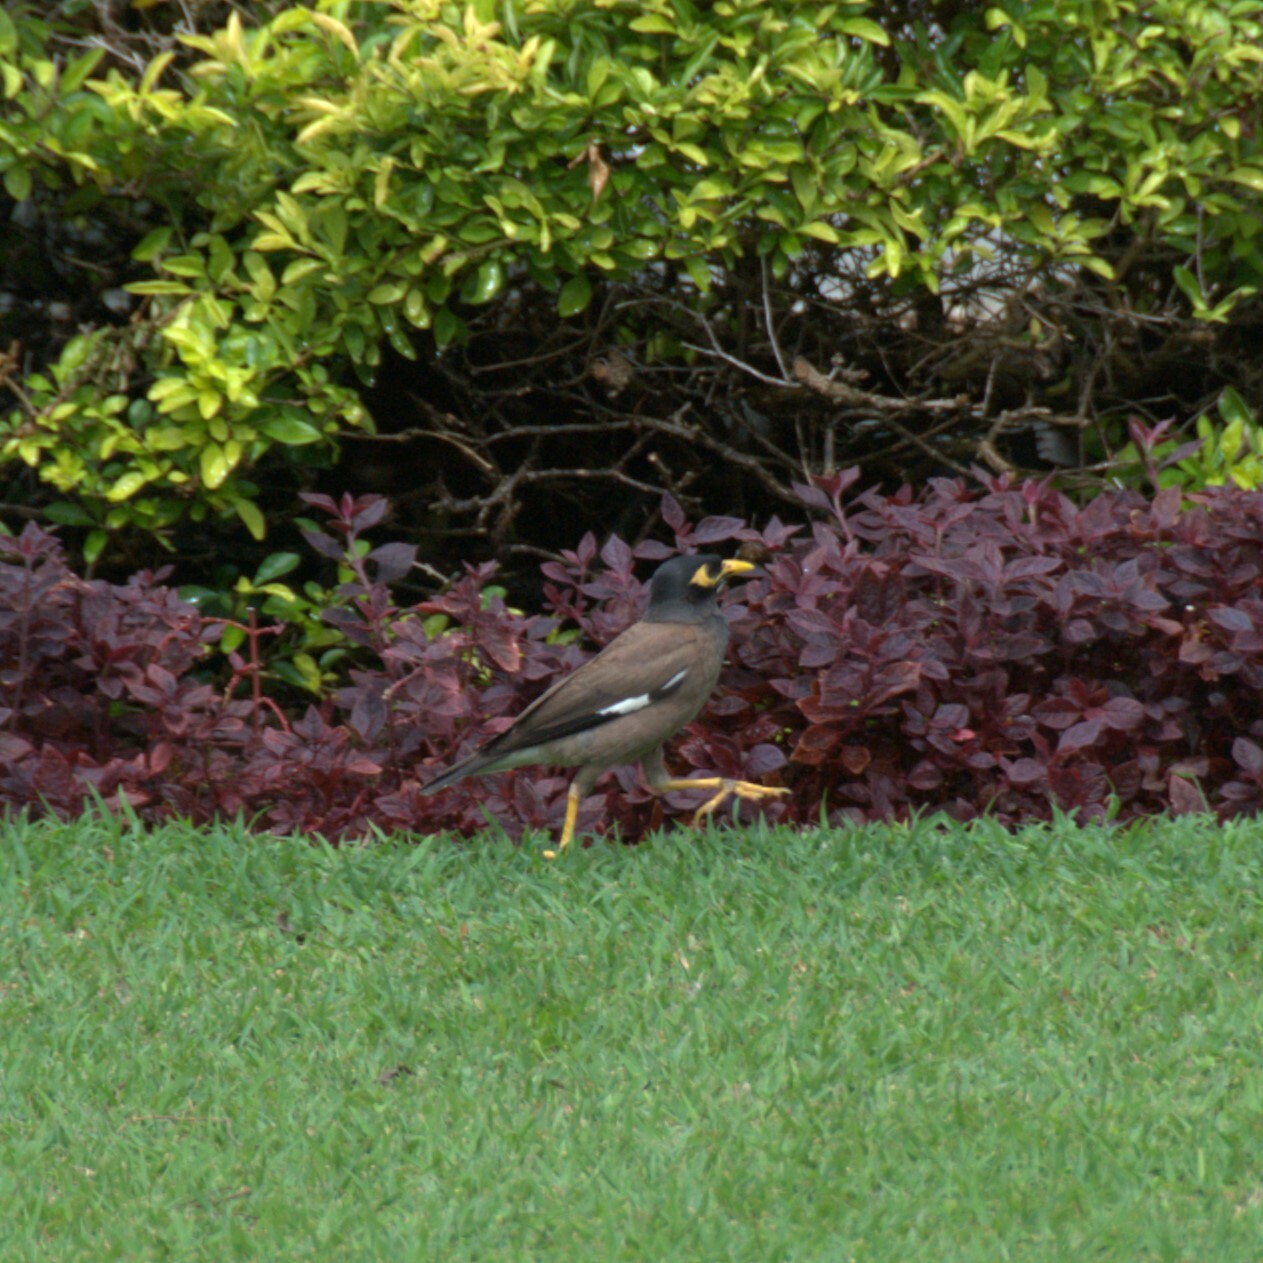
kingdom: Animalia
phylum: Chordata
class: Aves
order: Passeriformes
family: Sturnidae
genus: Acridotheres
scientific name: Acridotheres tristis
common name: Common myna
